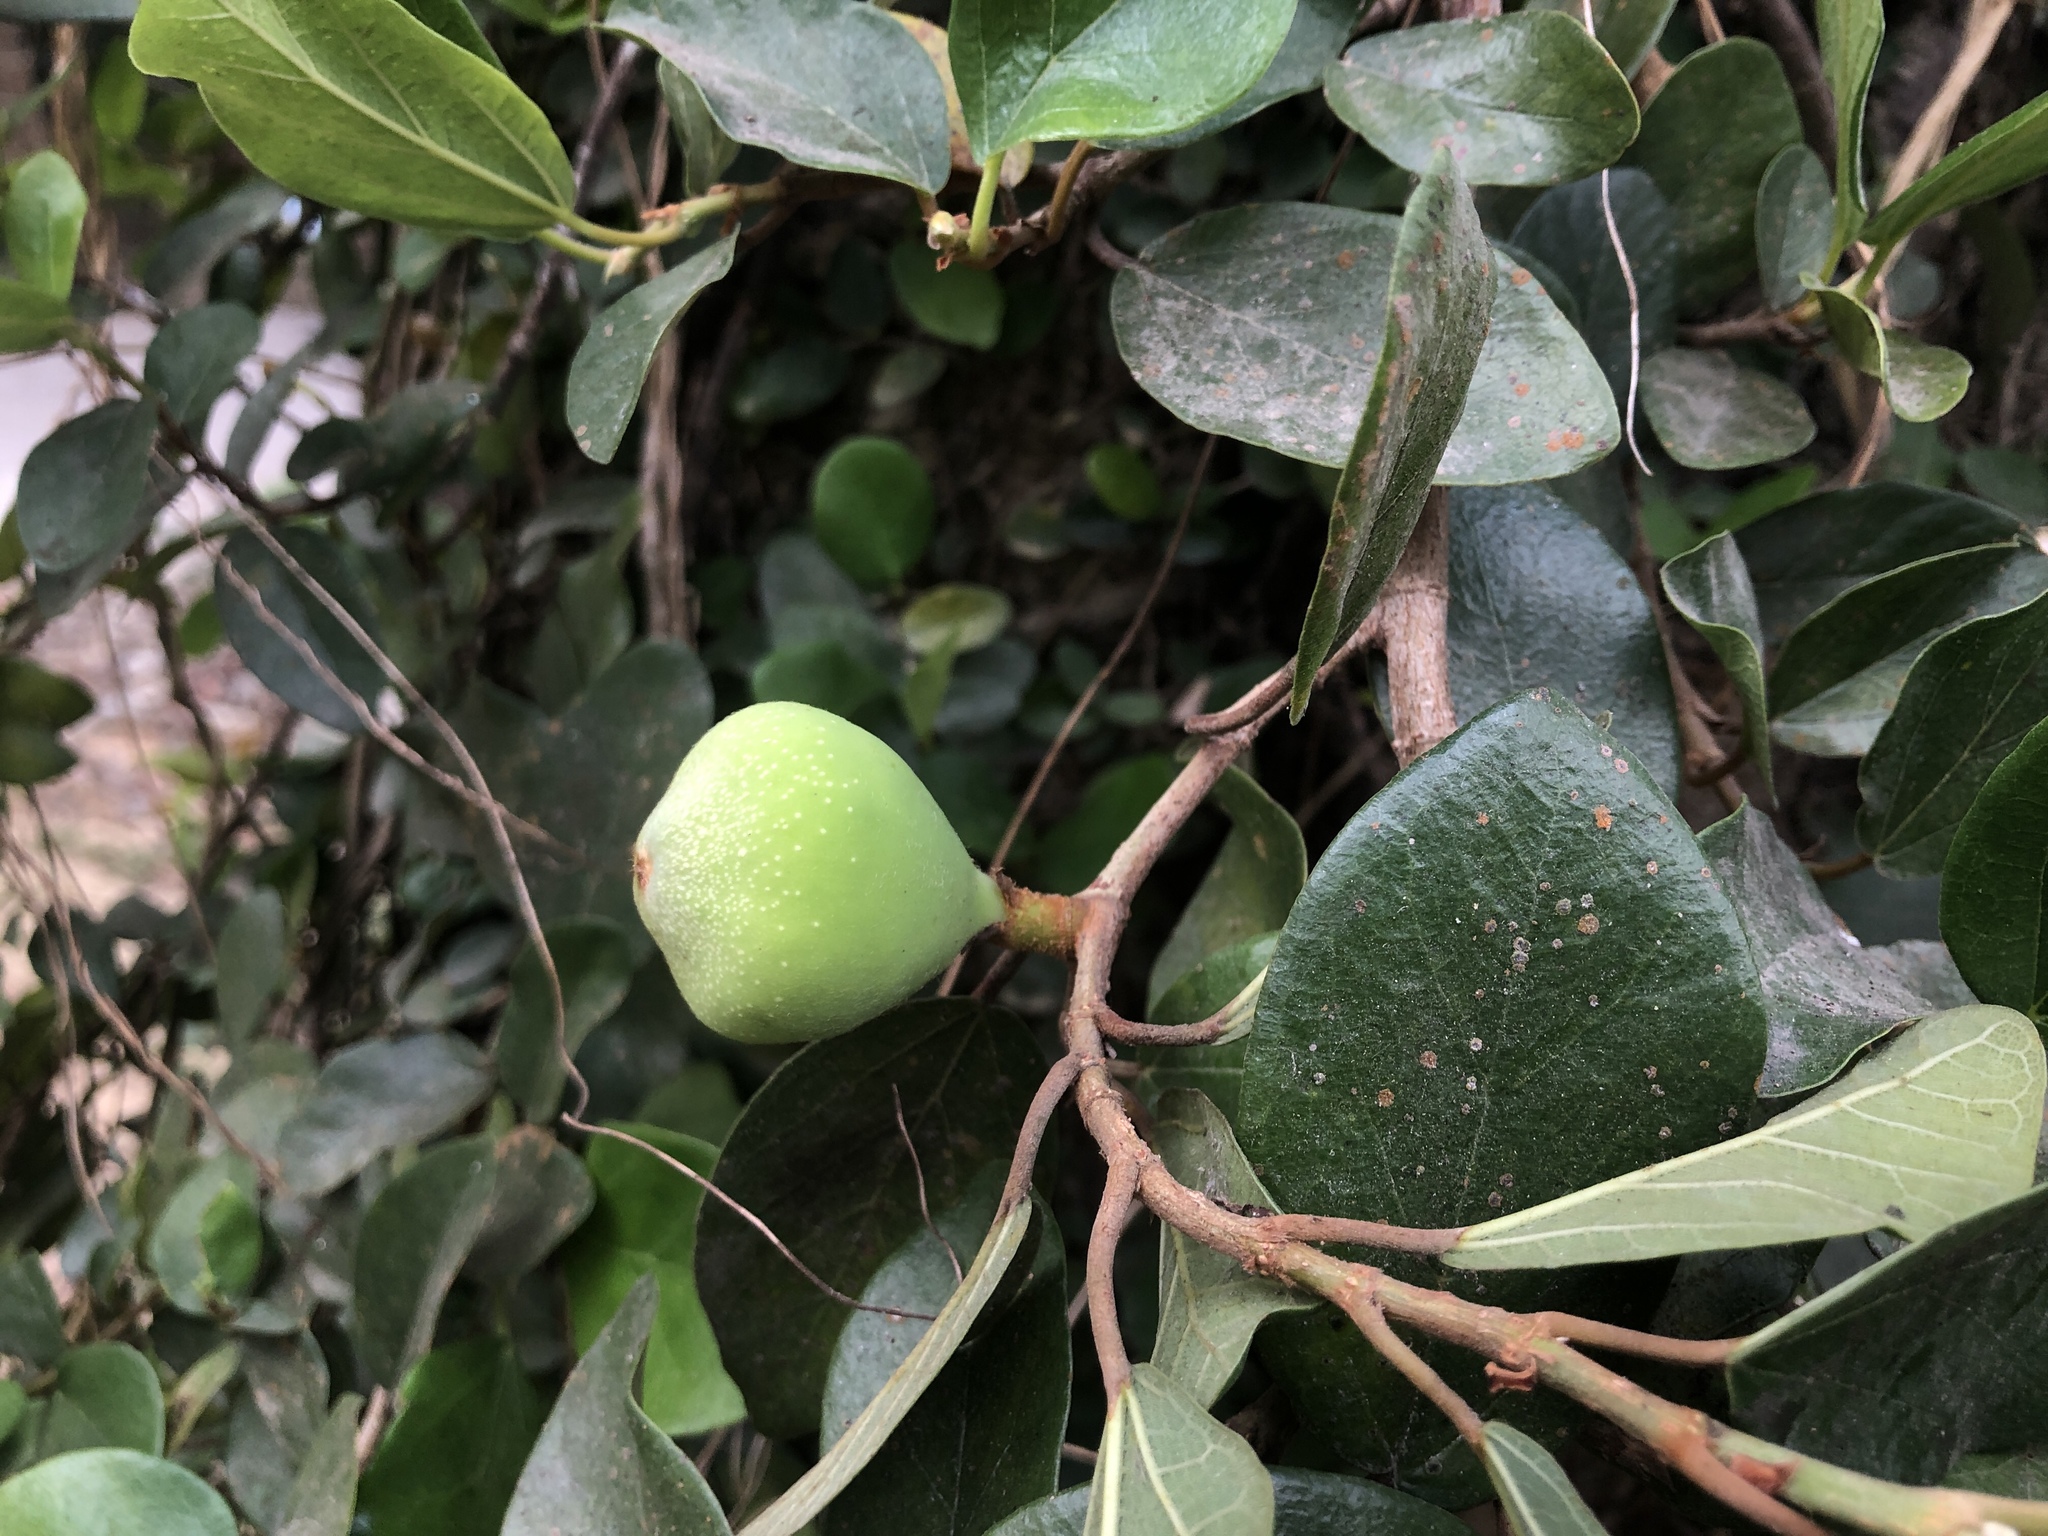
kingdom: Plantae
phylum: Tracheophyta
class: Magnoliopsida
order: Rosales
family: Moraceae
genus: Ficus
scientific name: Ficus pumila
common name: Climbingfig
